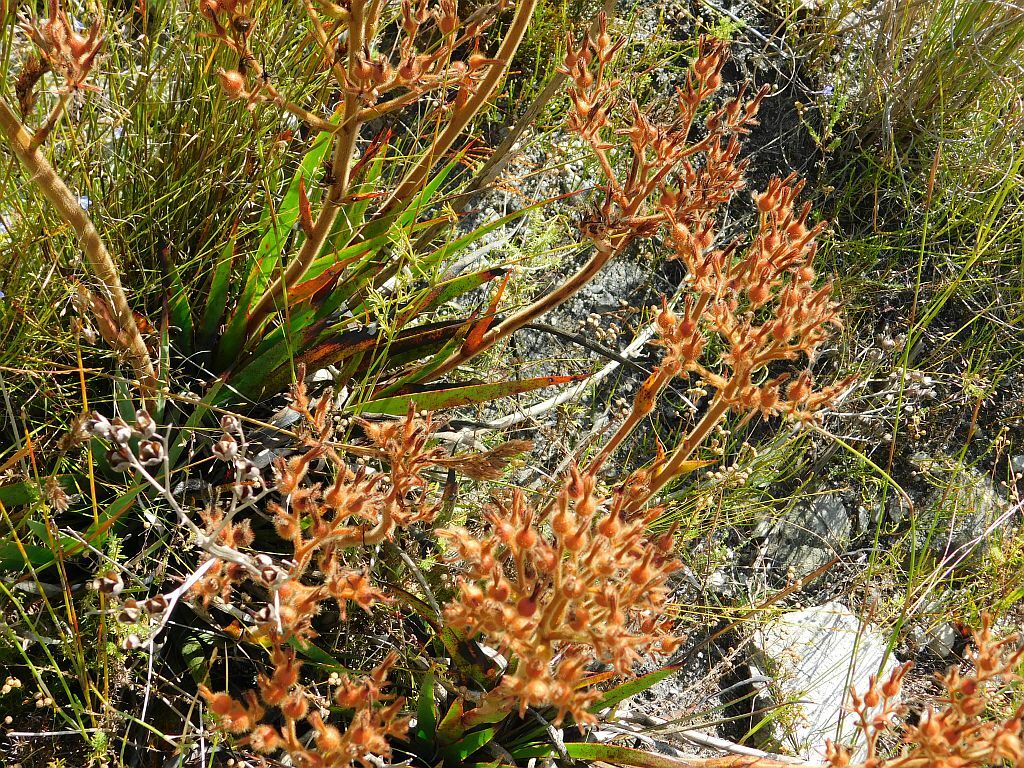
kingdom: Plantae
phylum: Tracheophyta
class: Liliopsida
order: Commelinales
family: Haemodoraceae
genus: Dilatris
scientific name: Dilatris viscosa
